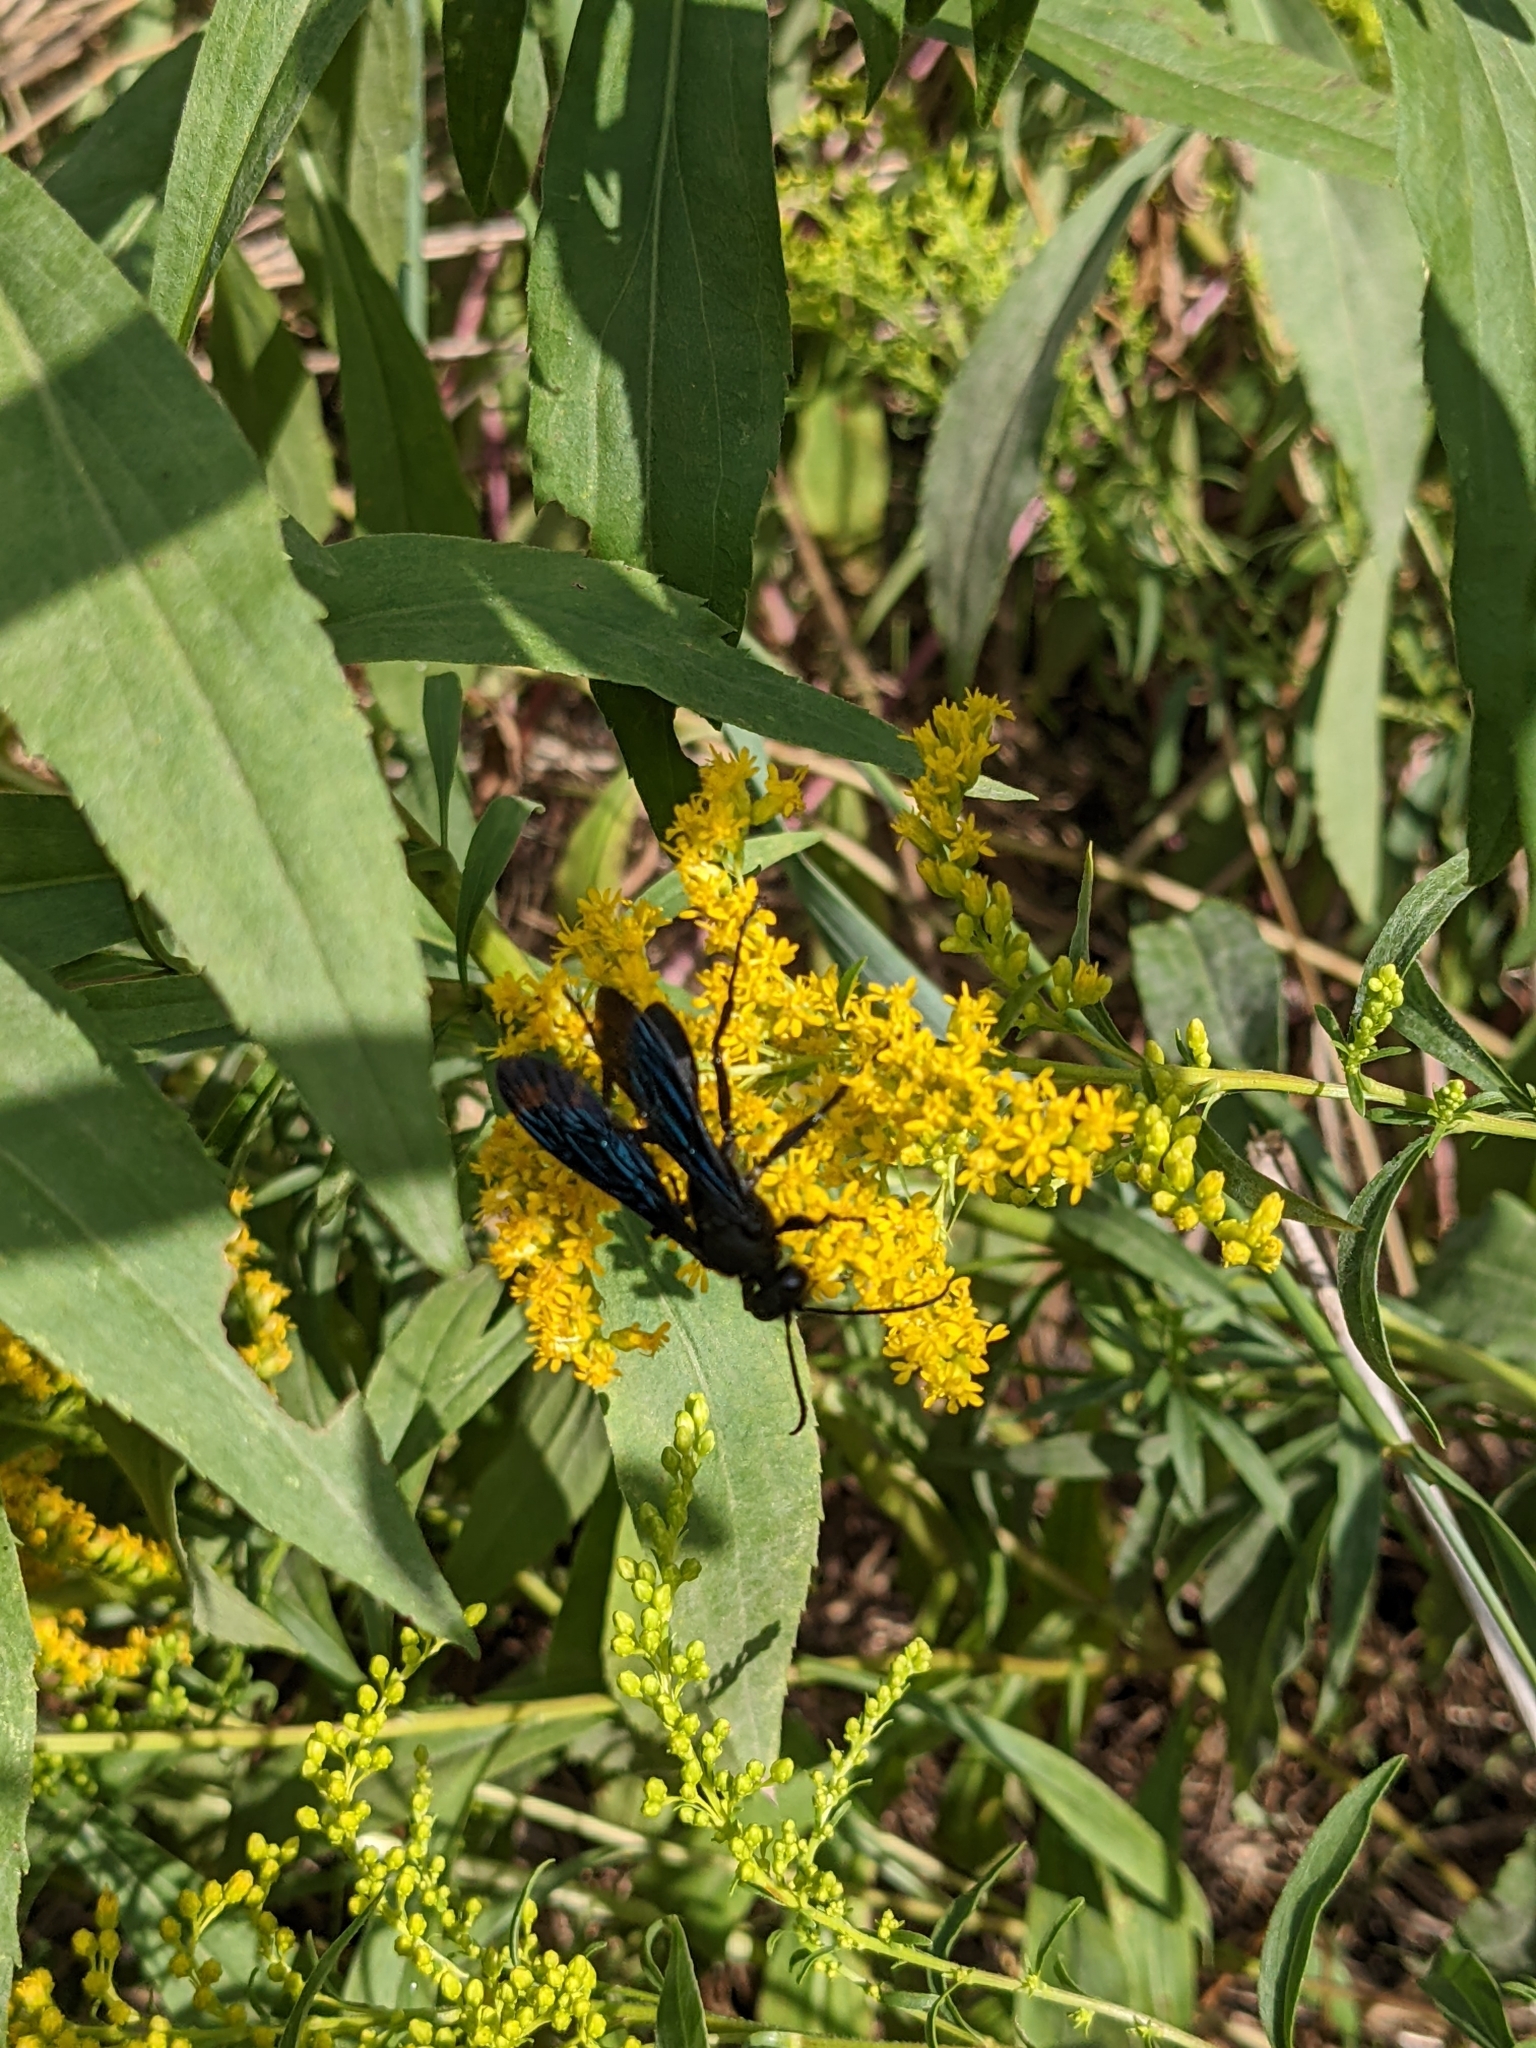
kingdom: Animalia
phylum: Arthropoda
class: Insecta
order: Hymenoptera
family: Sphecidae
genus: Sphex
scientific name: Sphex pensylvanicus
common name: Great black digger wasp
